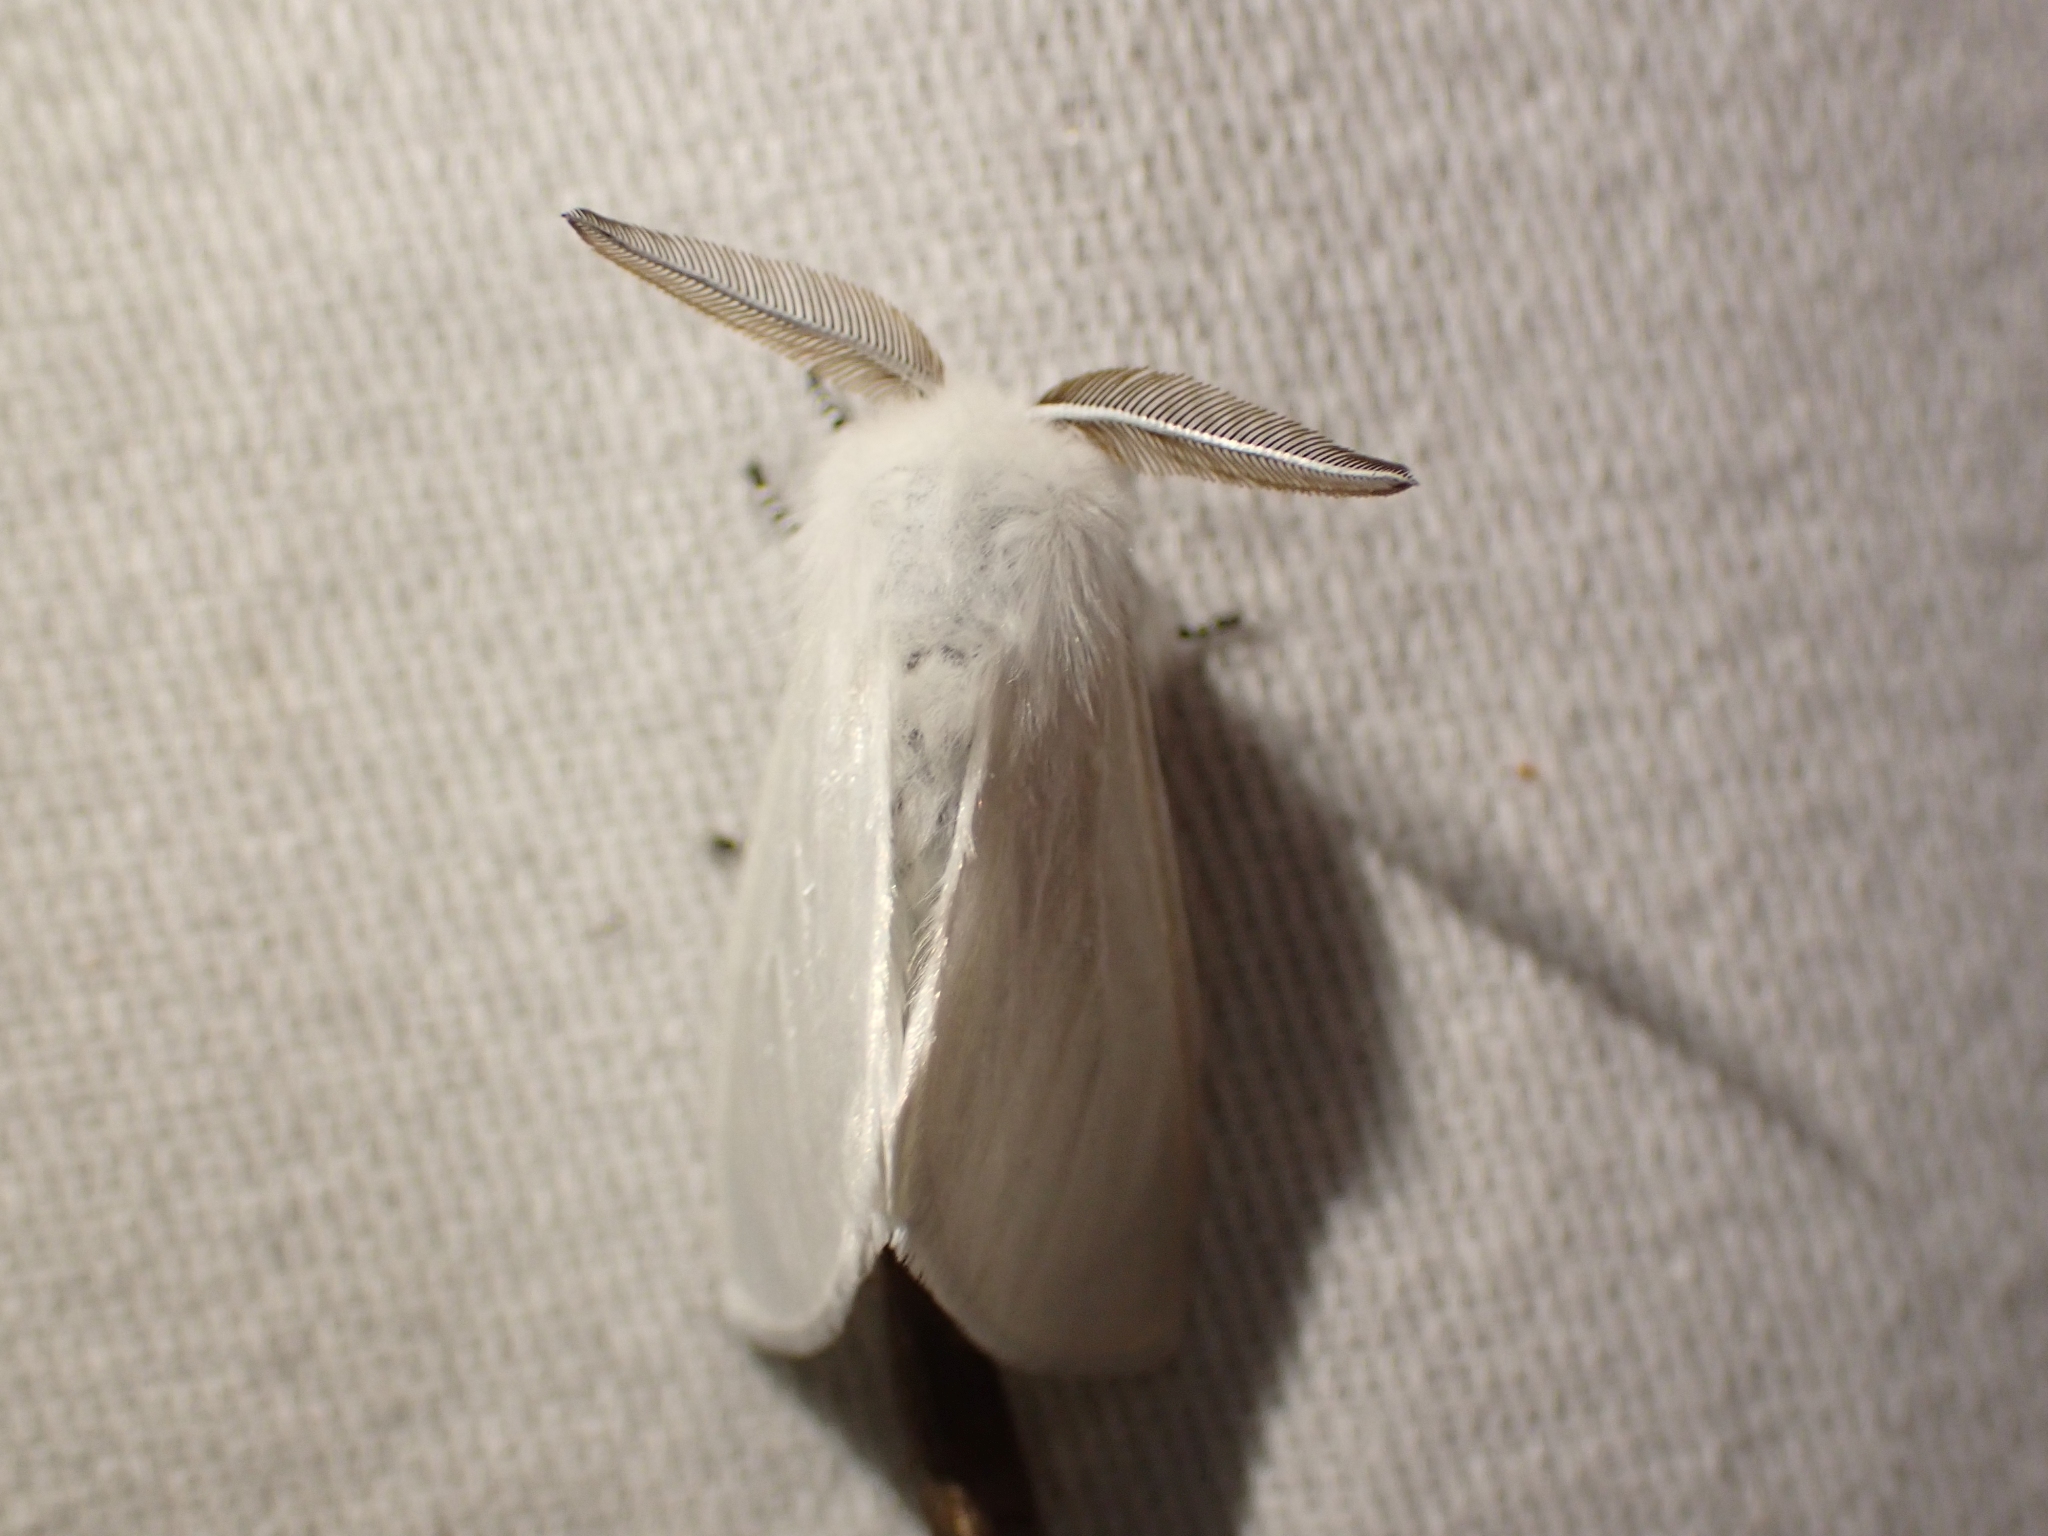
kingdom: Animalia
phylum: Arthropoda
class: Insecta
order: Lepidoptera
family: Erebidae
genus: Leucoma
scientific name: Leucoma salicis
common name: White satin moth
